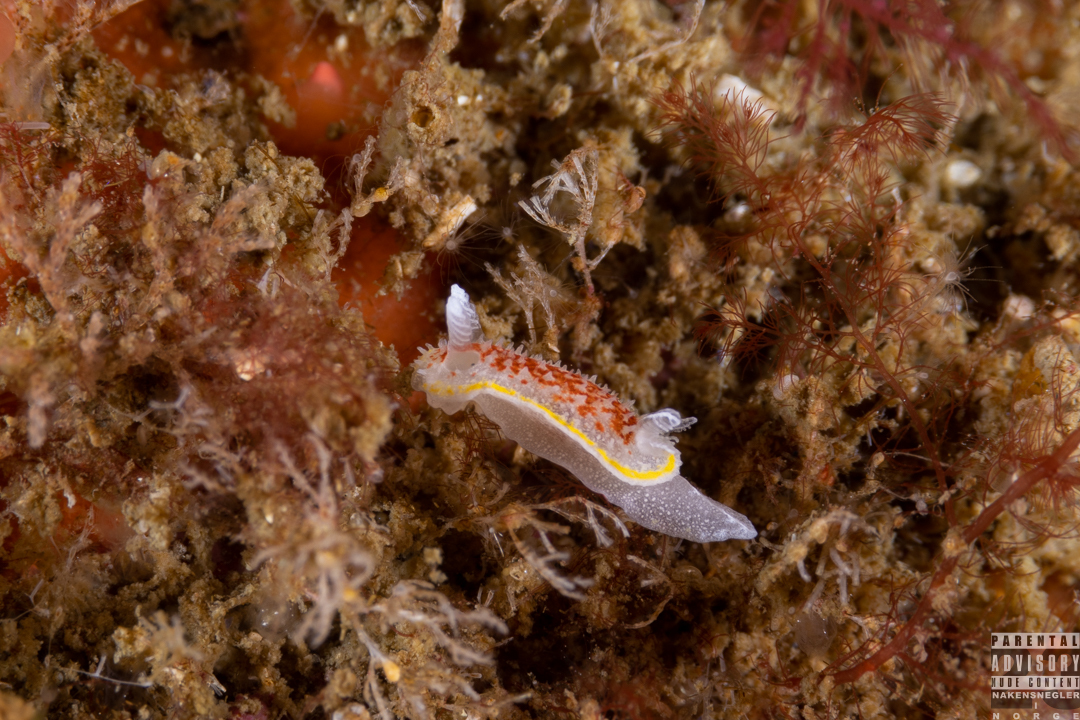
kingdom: Animalia
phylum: Mollusca
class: Gastropoda
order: Nudibranchia
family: Calycidorididae
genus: Diaphorodoris
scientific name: Diaphorodoris luteocincta
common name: Fried egg nudibranch
